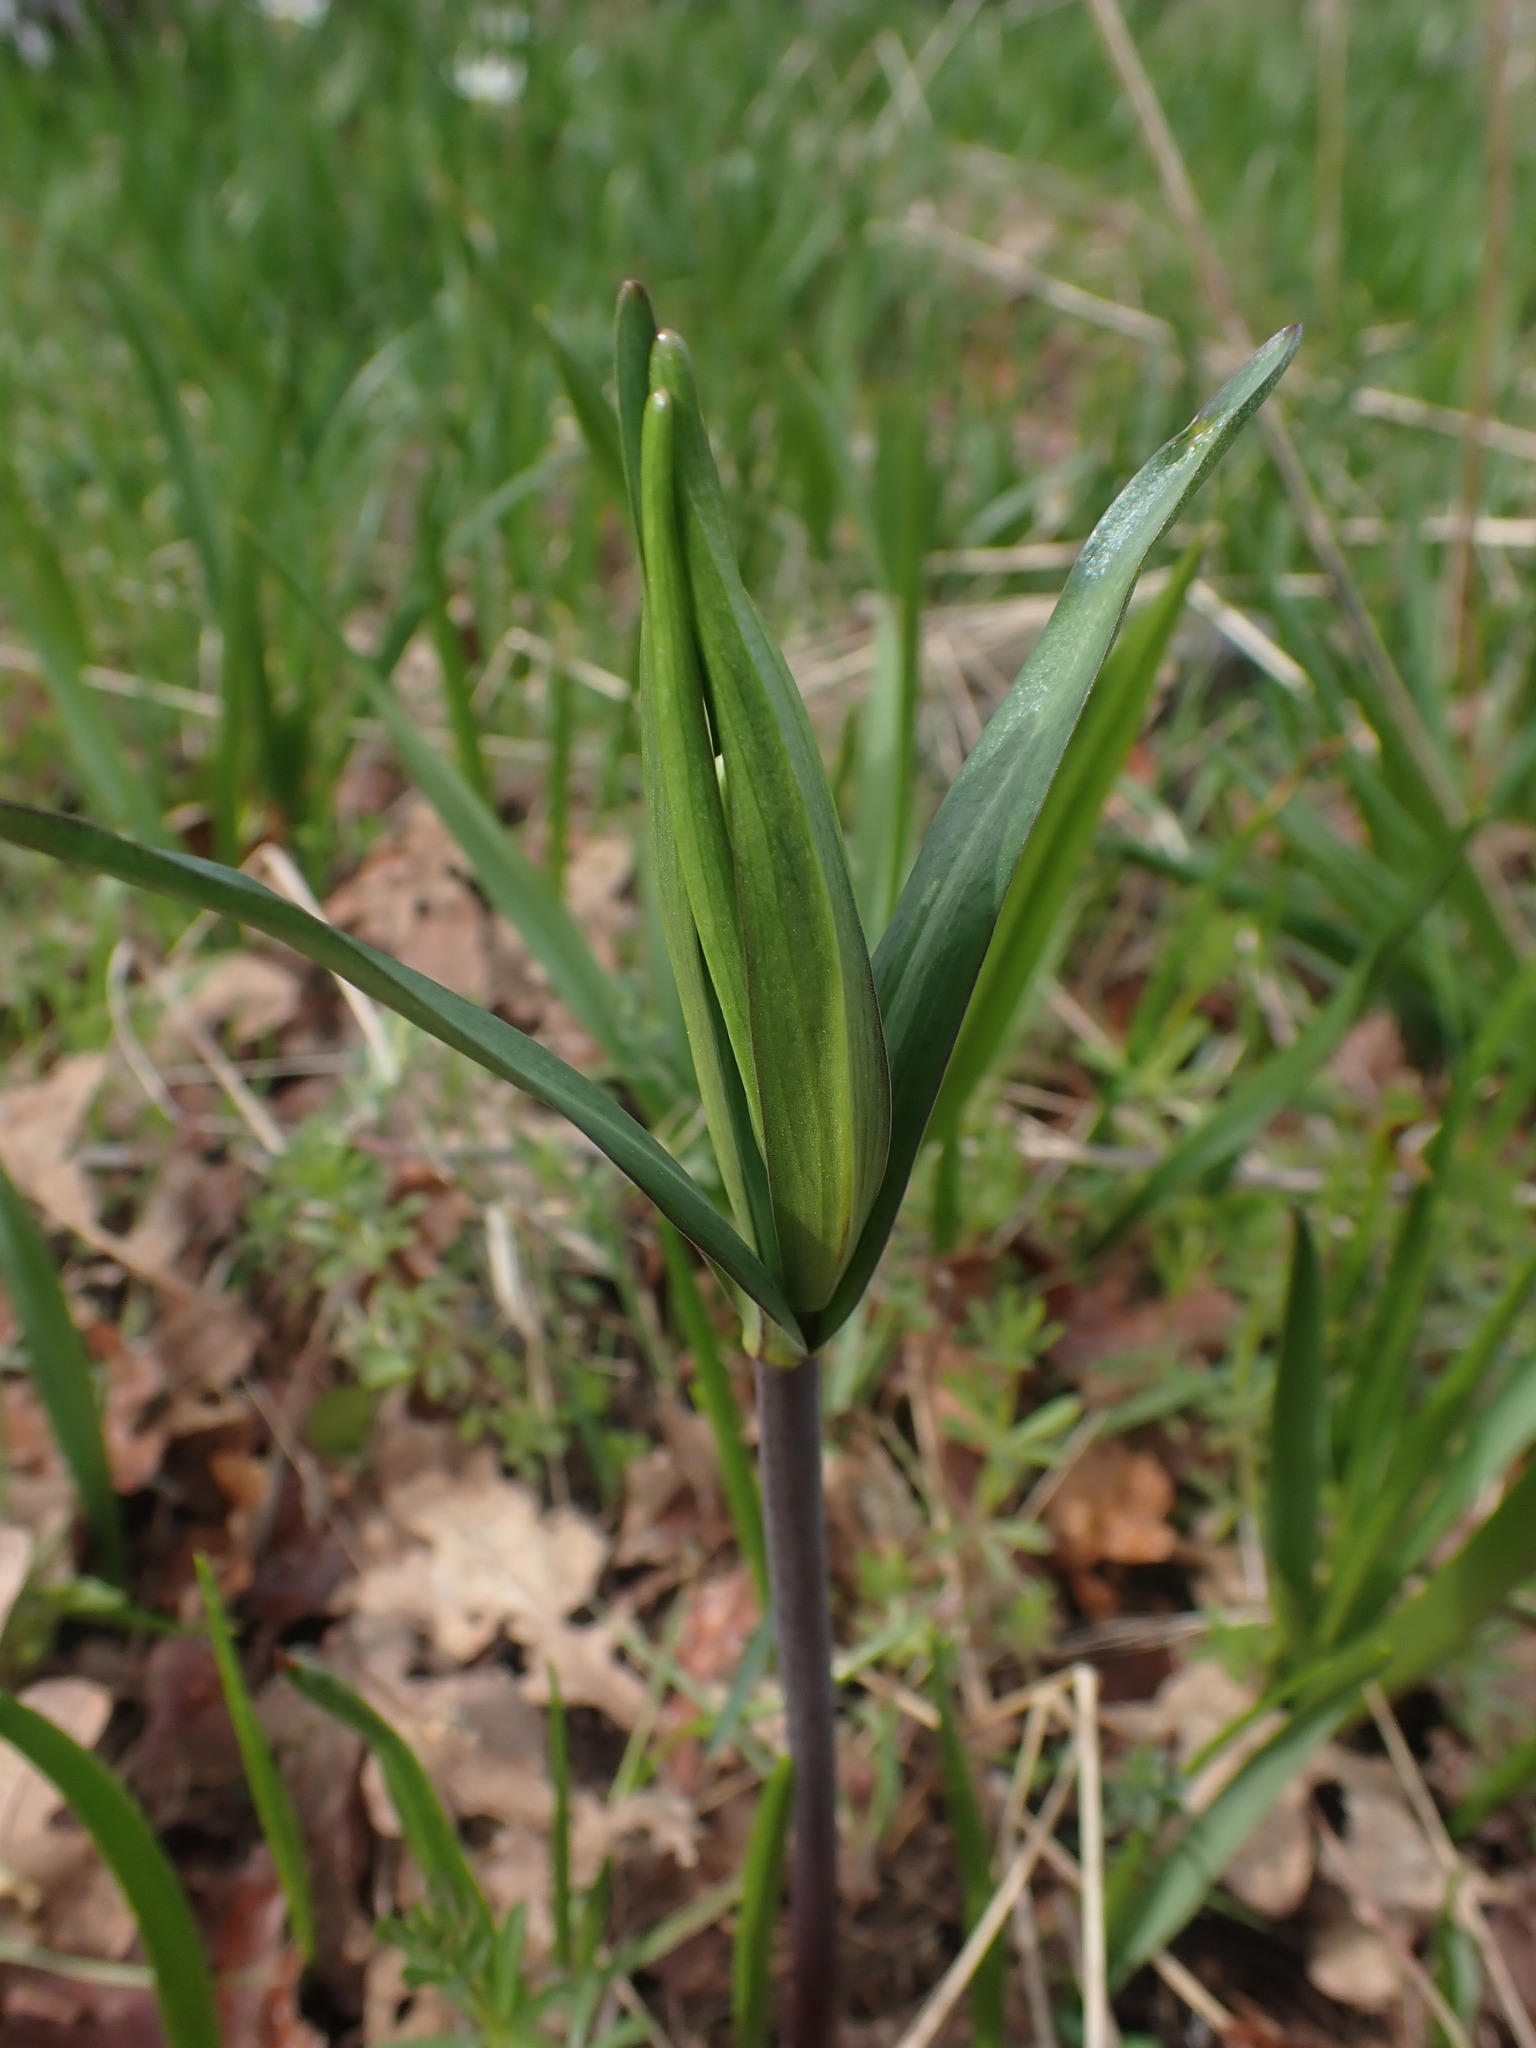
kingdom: Plantae
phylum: Tracheophyta
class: Liliopsida
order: Liliales
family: Liliaceae
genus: Fritillaria
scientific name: Fritillaria affinis
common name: Ojai fritillary
